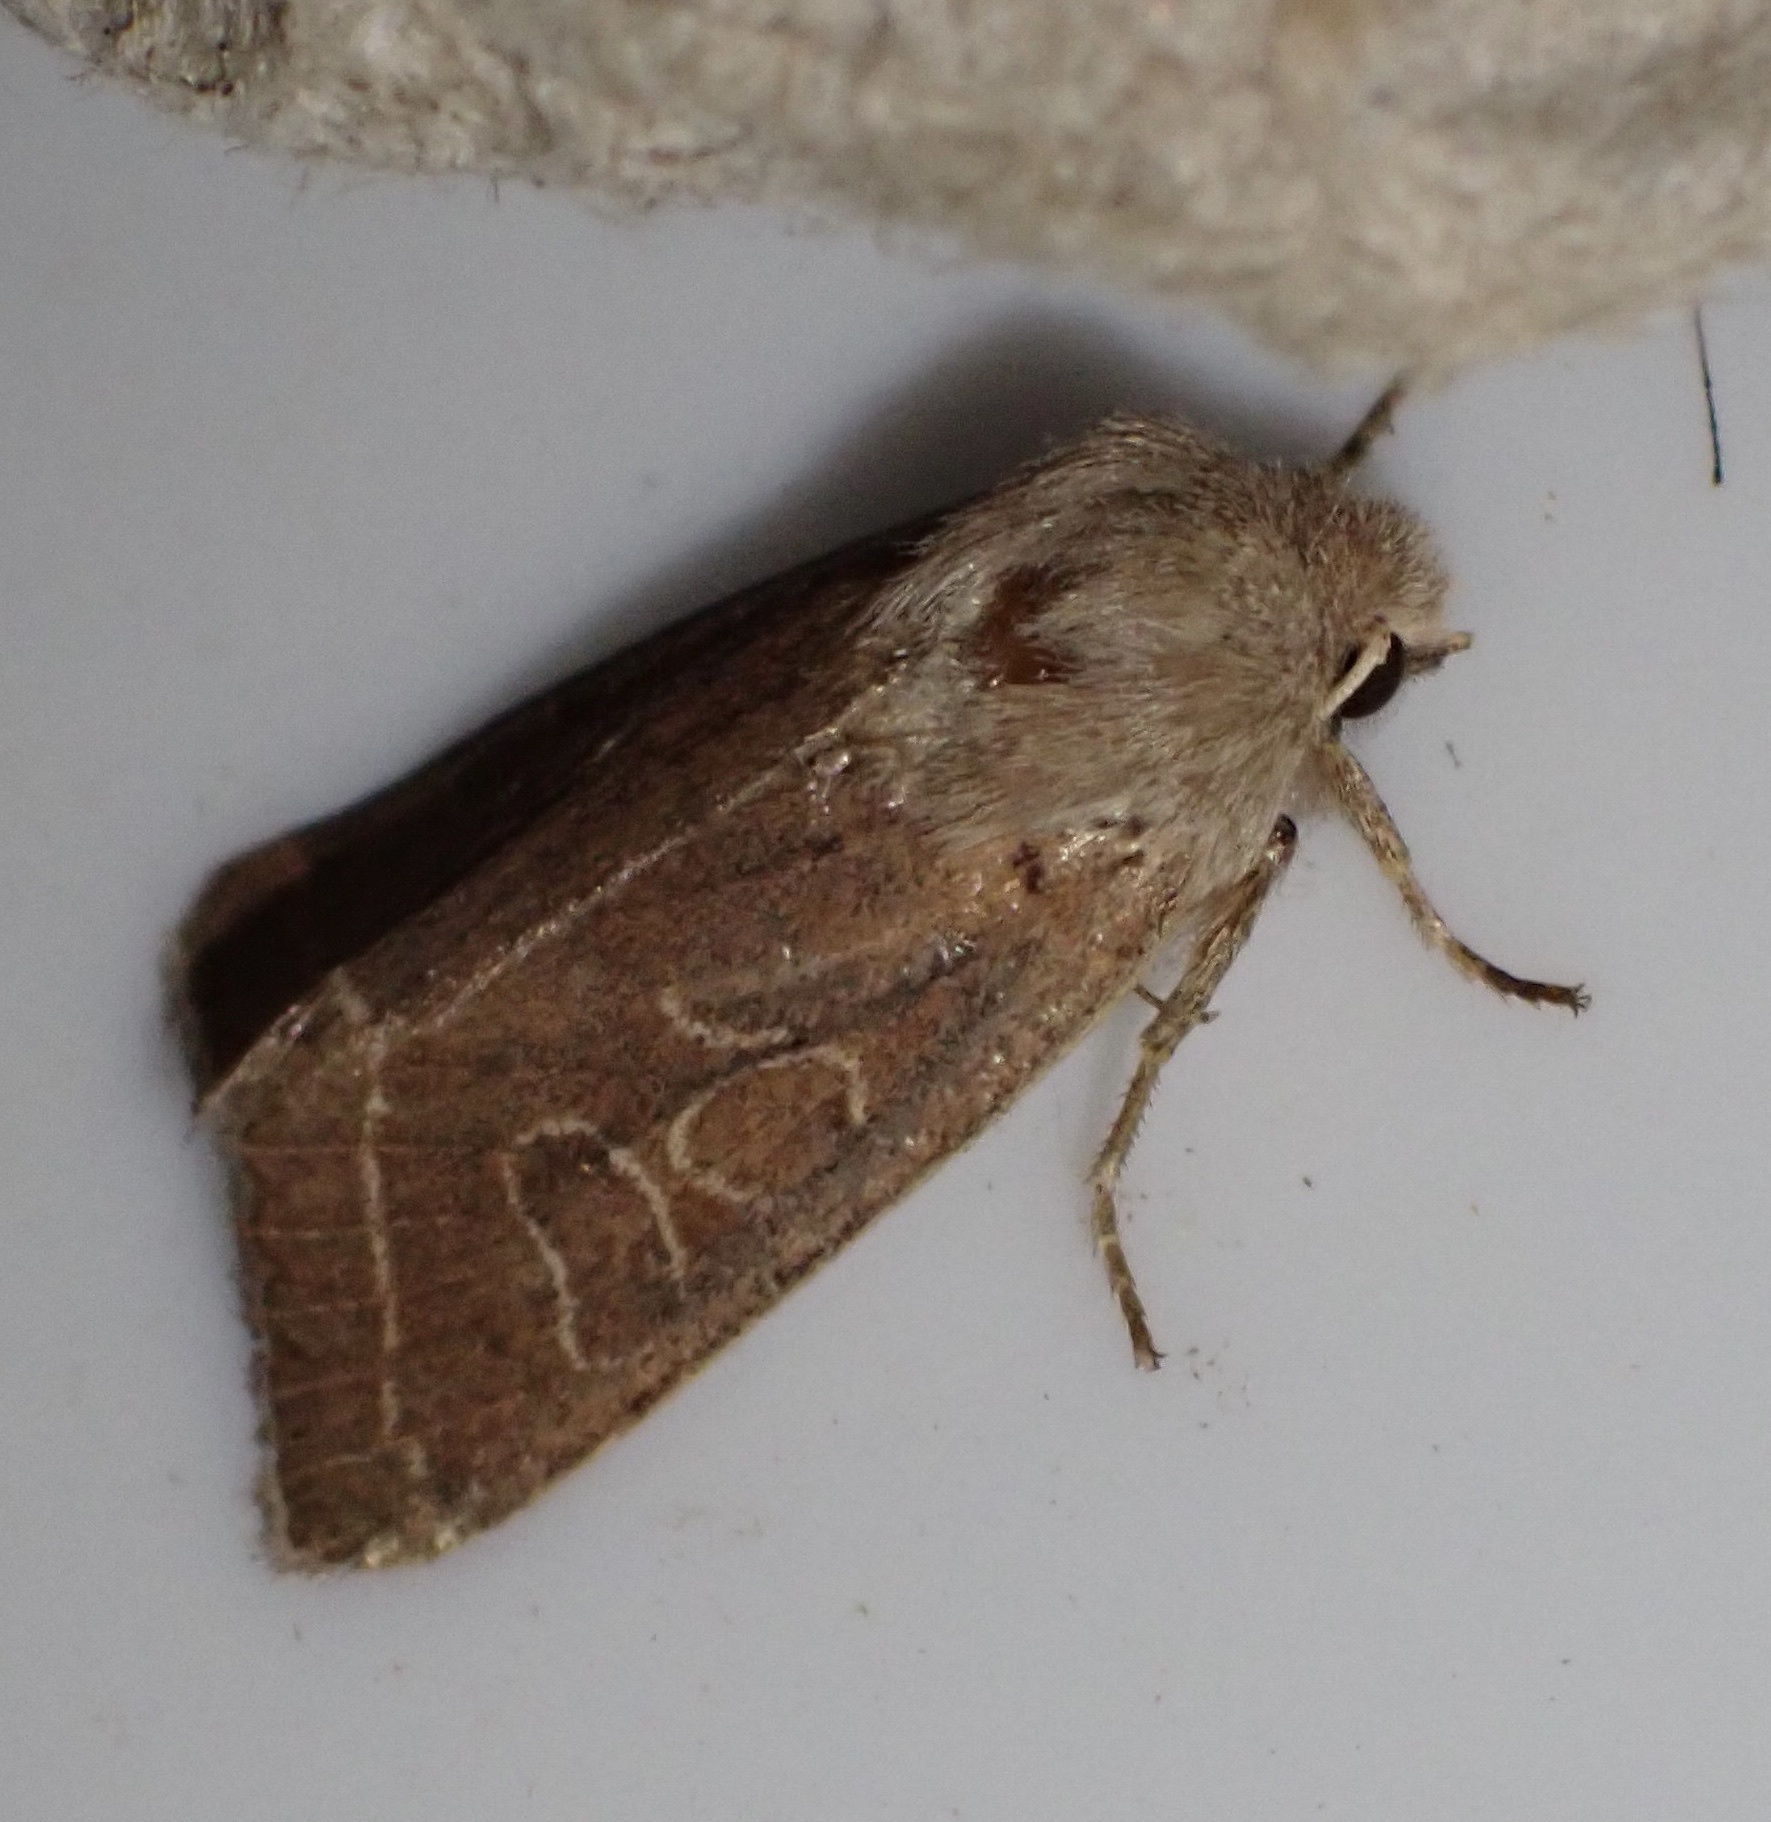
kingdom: Animalia
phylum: Arthropoda
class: Insecta
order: Lepidoptera
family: Noctuidae
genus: Orthosia
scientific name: Orthosia cerasi
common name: Common quaker
